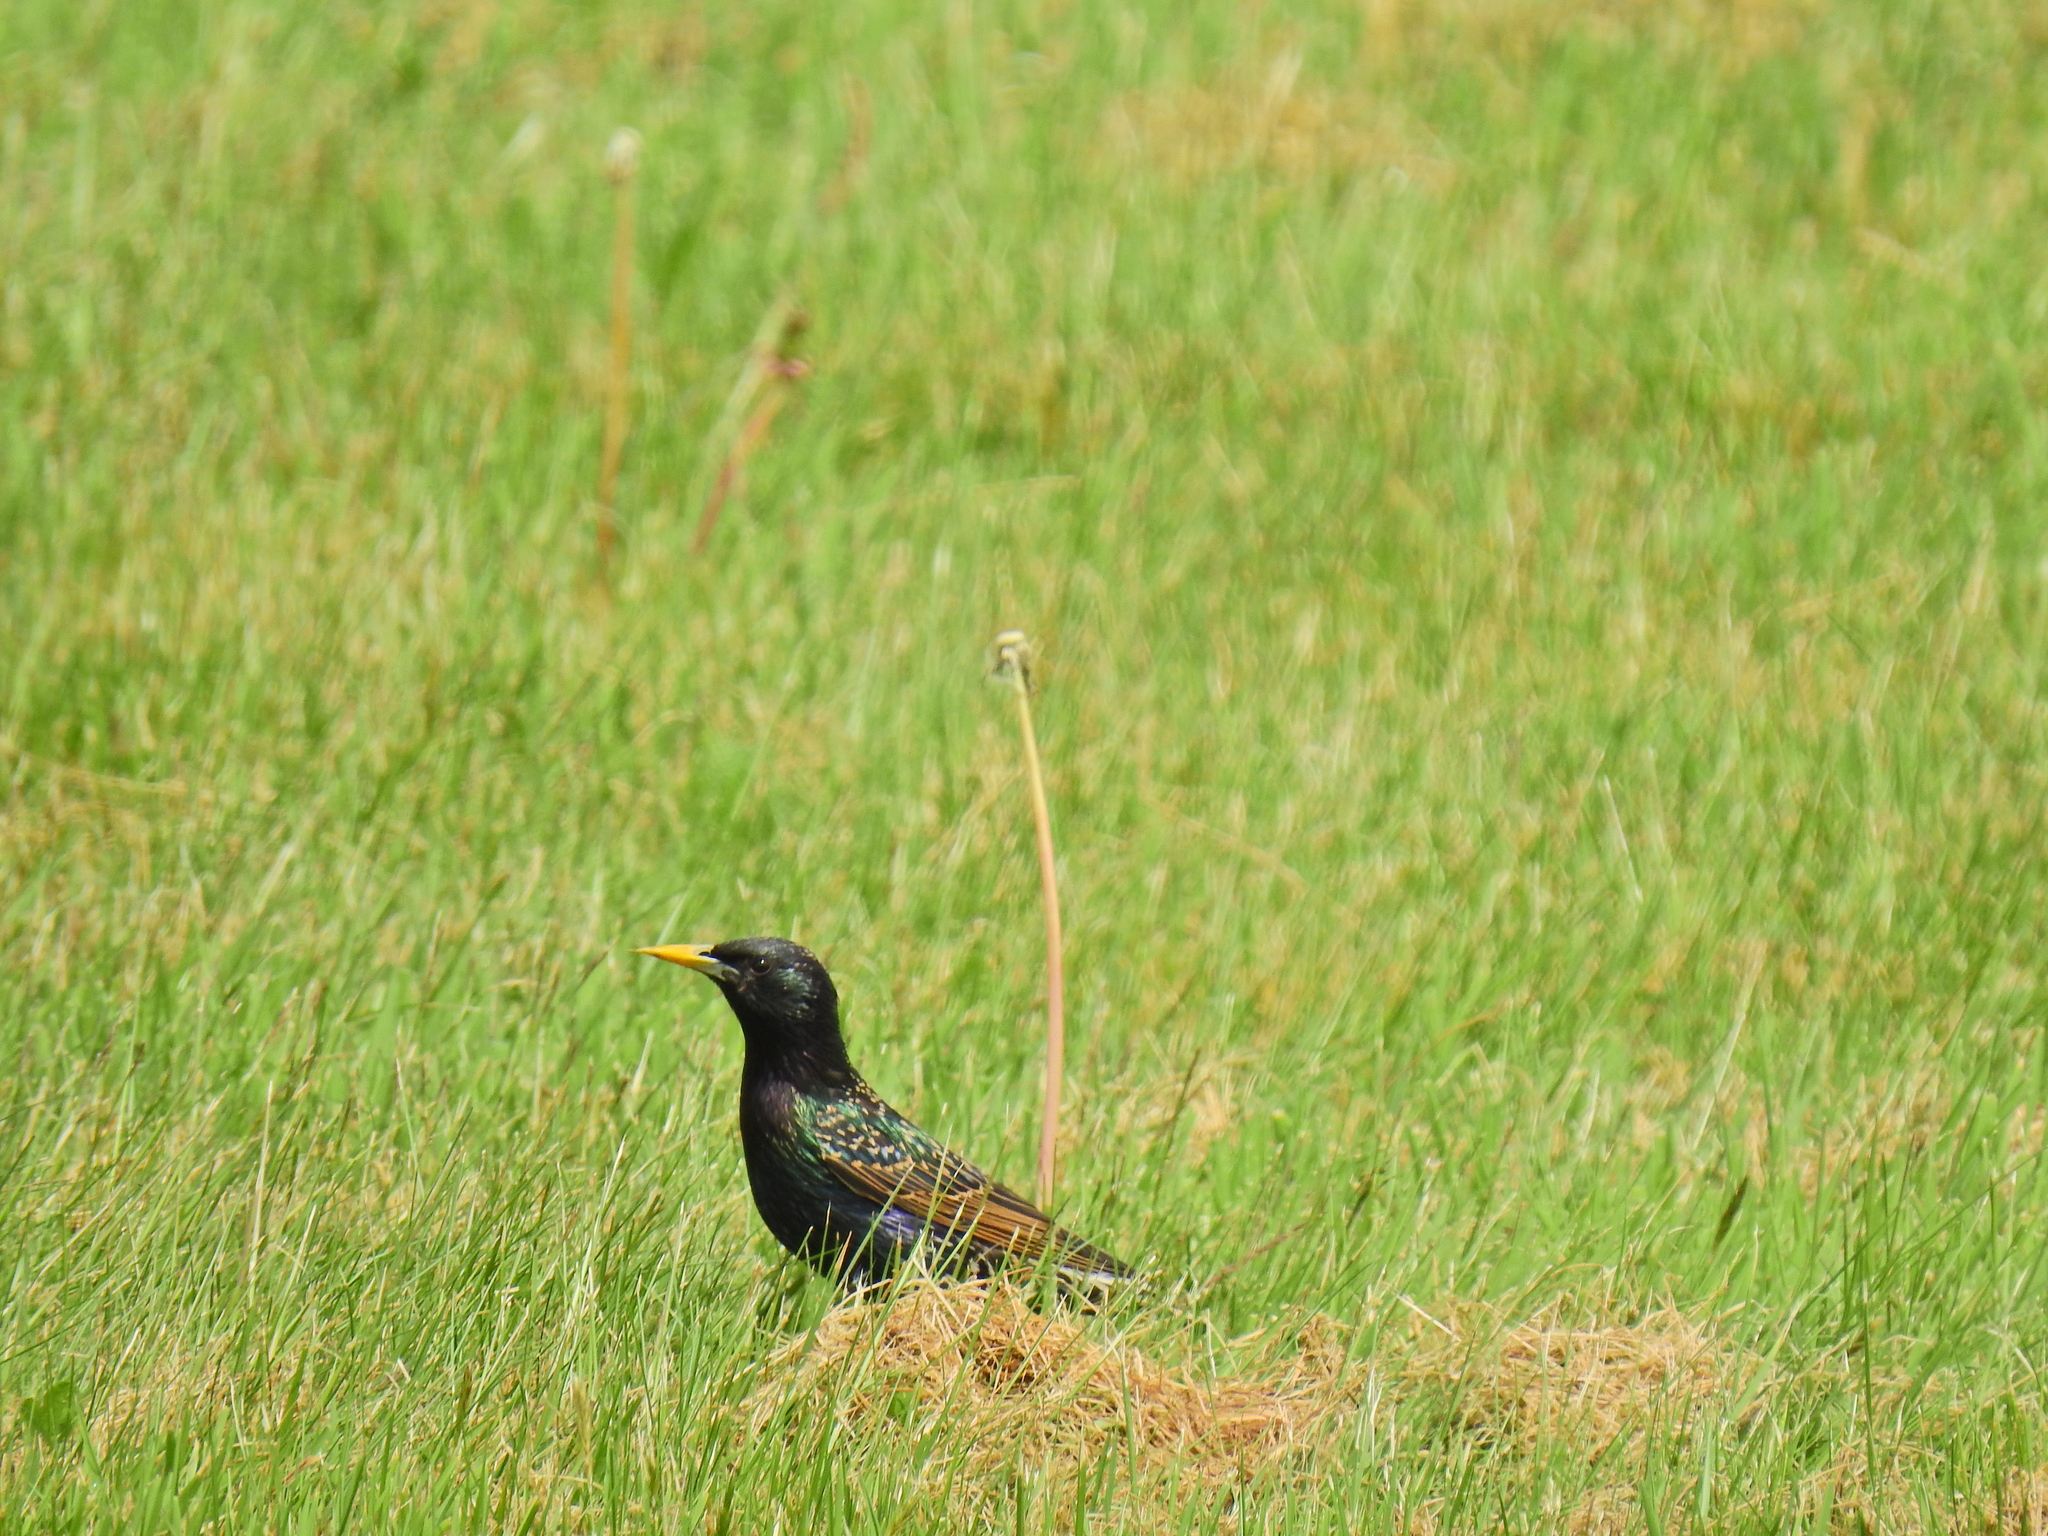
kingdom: Animalia
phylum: Chordata
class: Aves
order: Passeriformes
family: Sturnidae
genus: Sturnus
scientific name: Sturnus vulgaris
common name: Common starling
